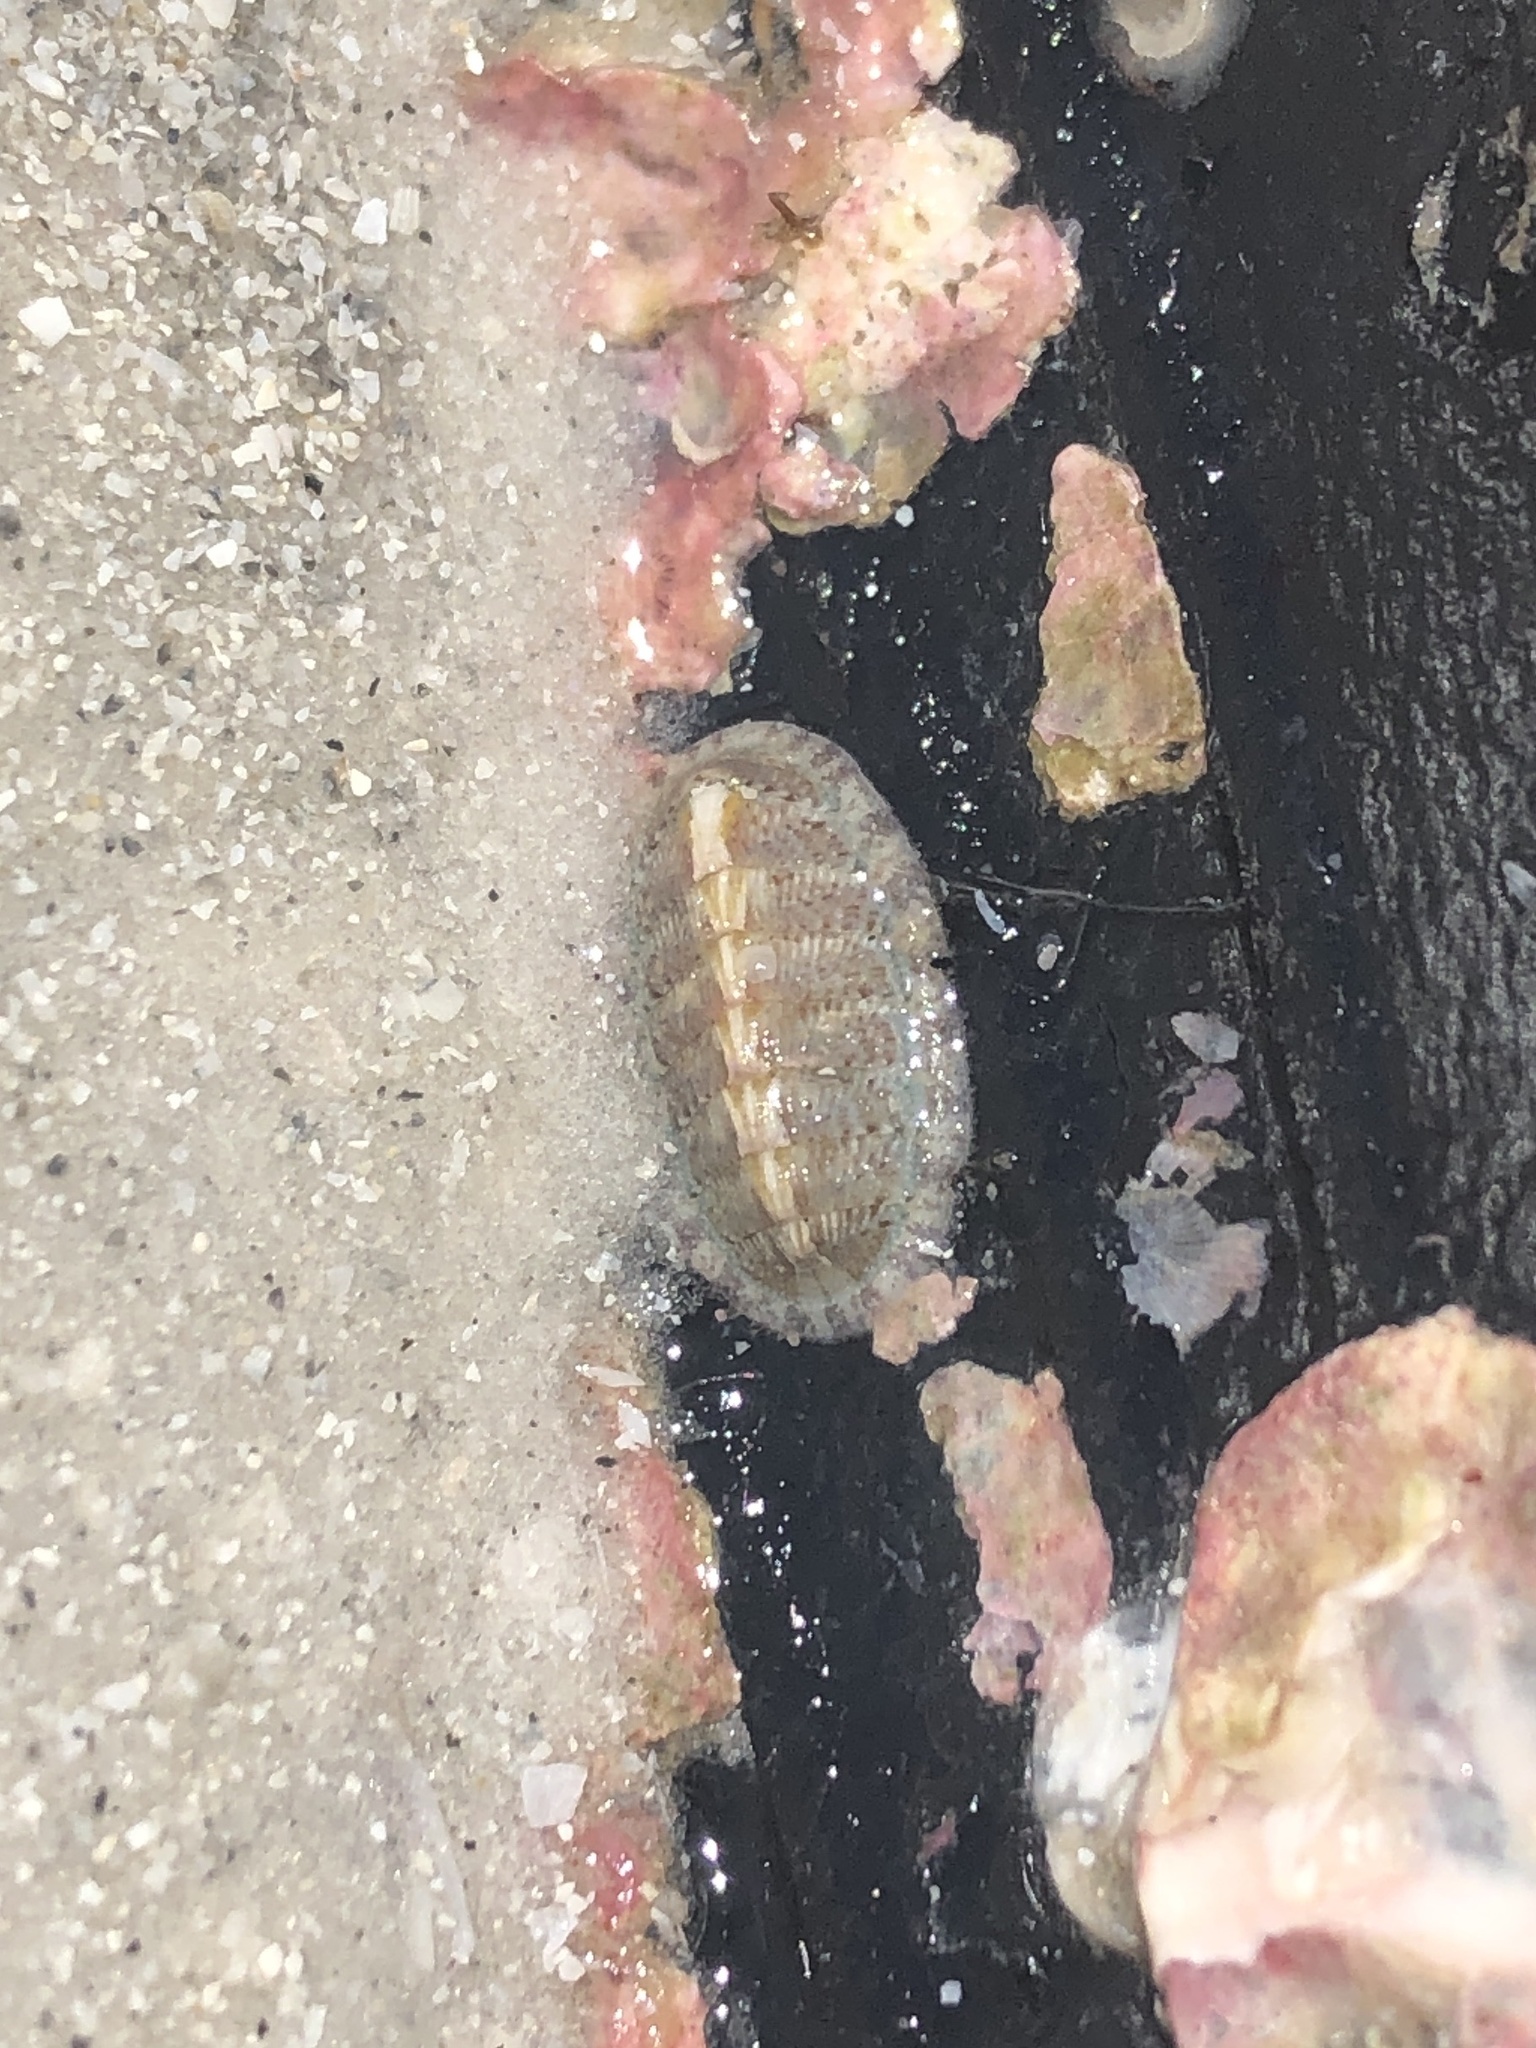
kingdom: Animalia
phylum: Mollusca
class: Polyplacophora
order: Chitonida
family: Chaetopleuridae
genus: Chaetopleura
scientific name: Chaetopleura apiculata
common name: Bee chiton
